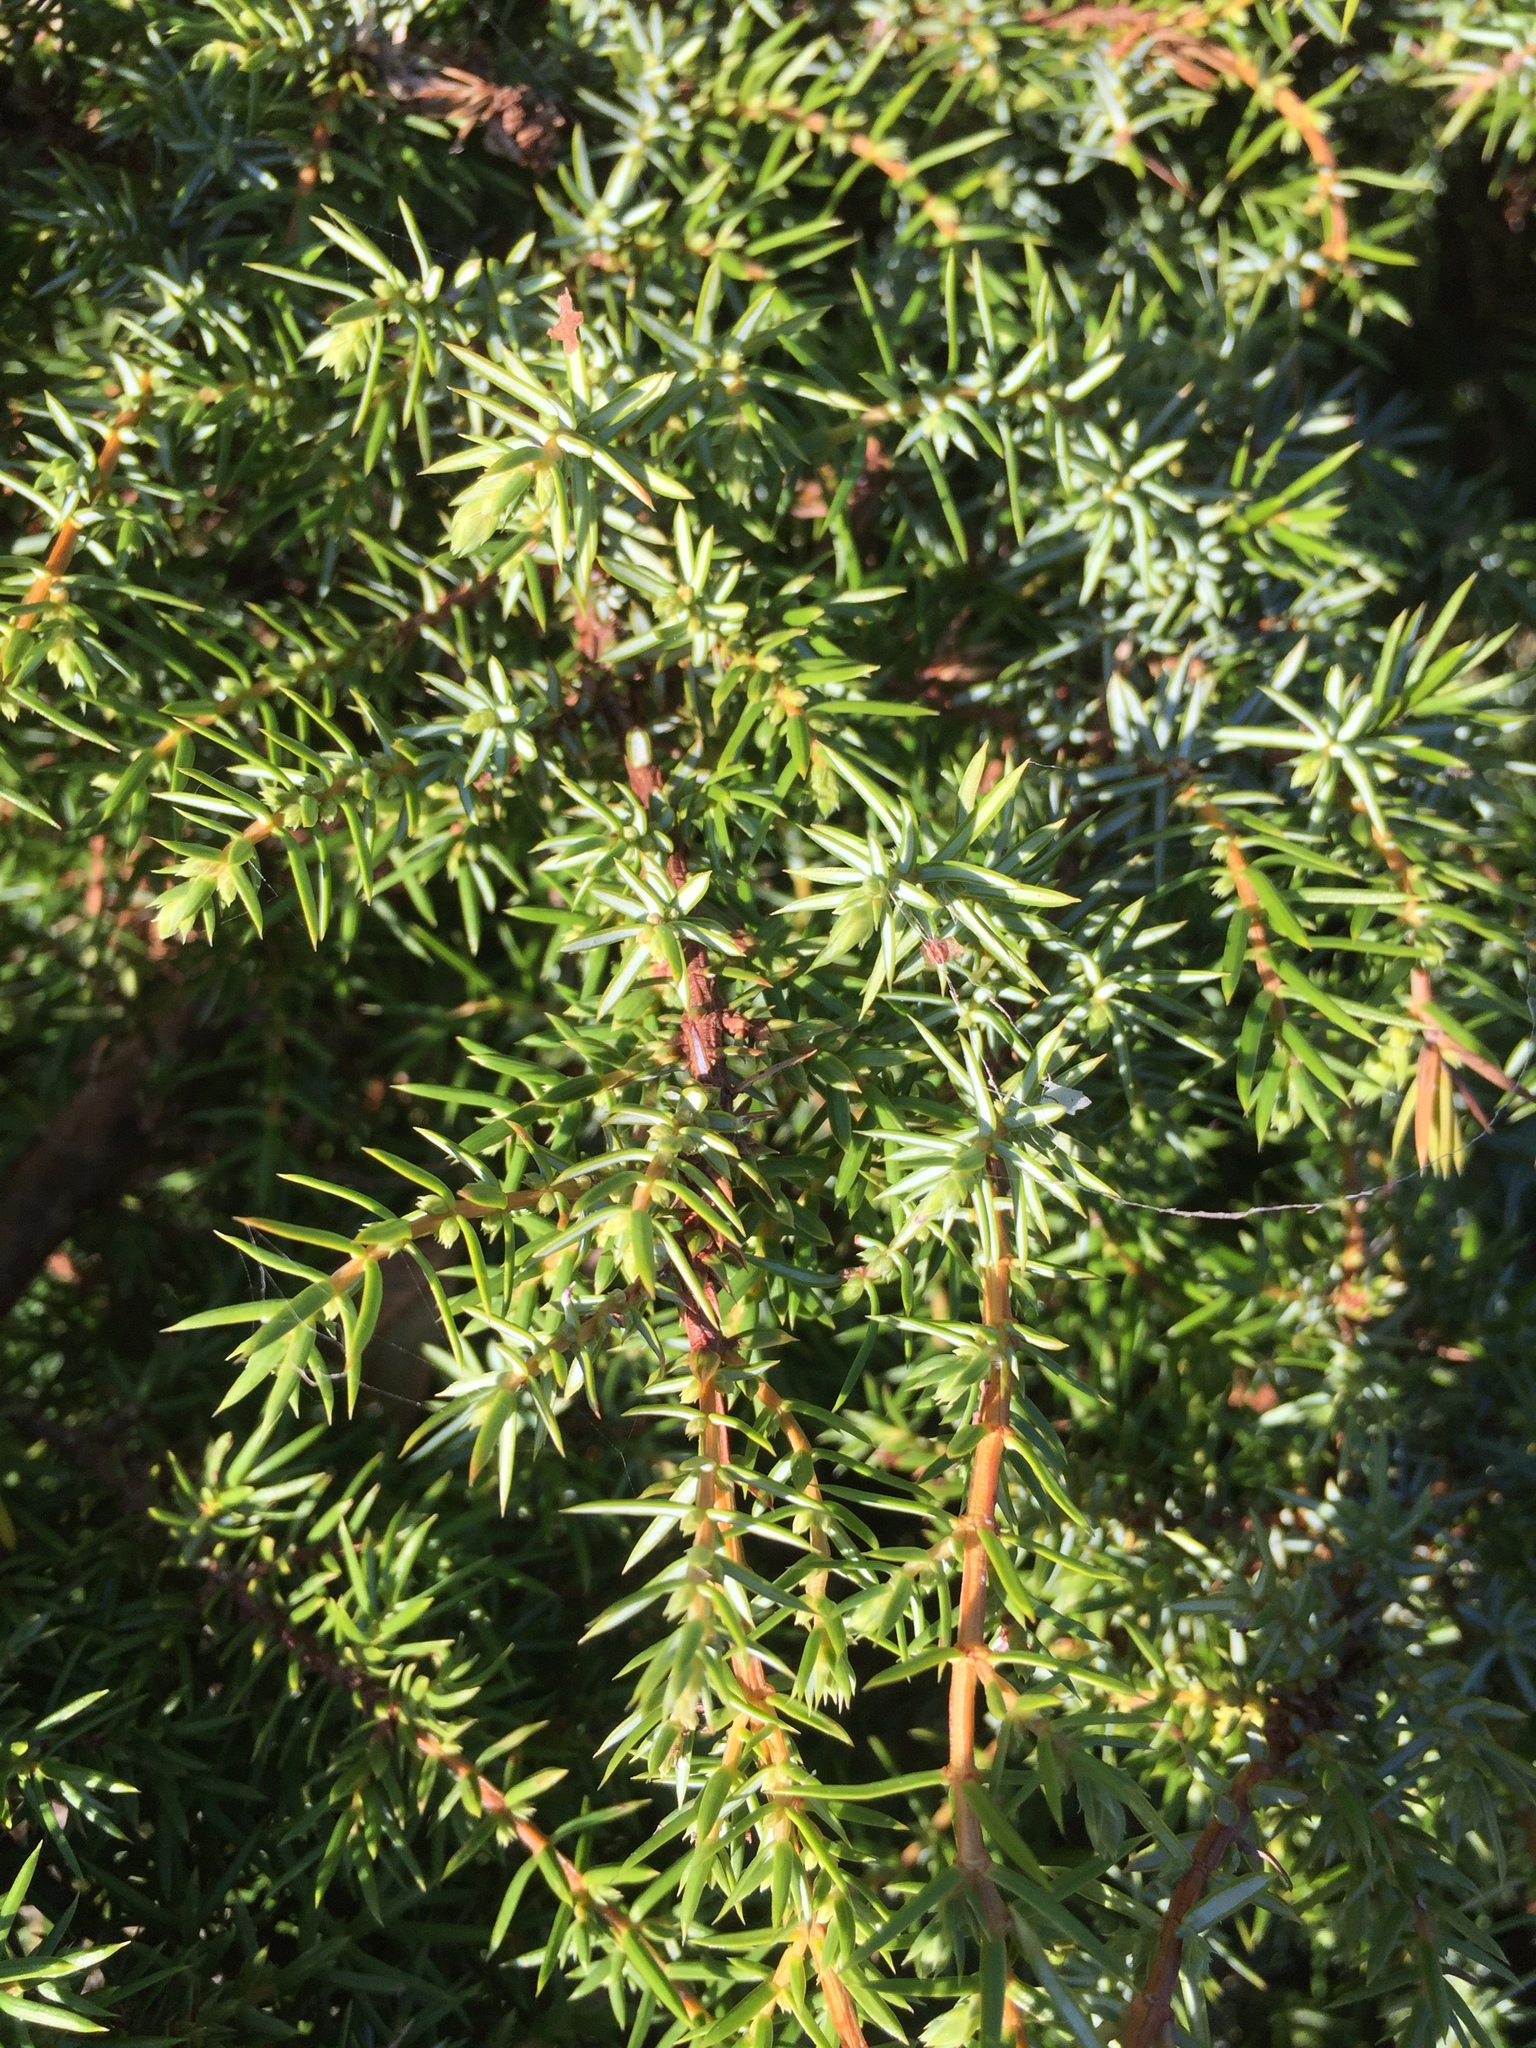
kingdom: Plantae
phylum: Tracheophyta
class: Pinopsida
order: Pinales
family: Cupressaceae
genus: Juniperus
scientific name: Juniperus communis
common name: Common juniper
